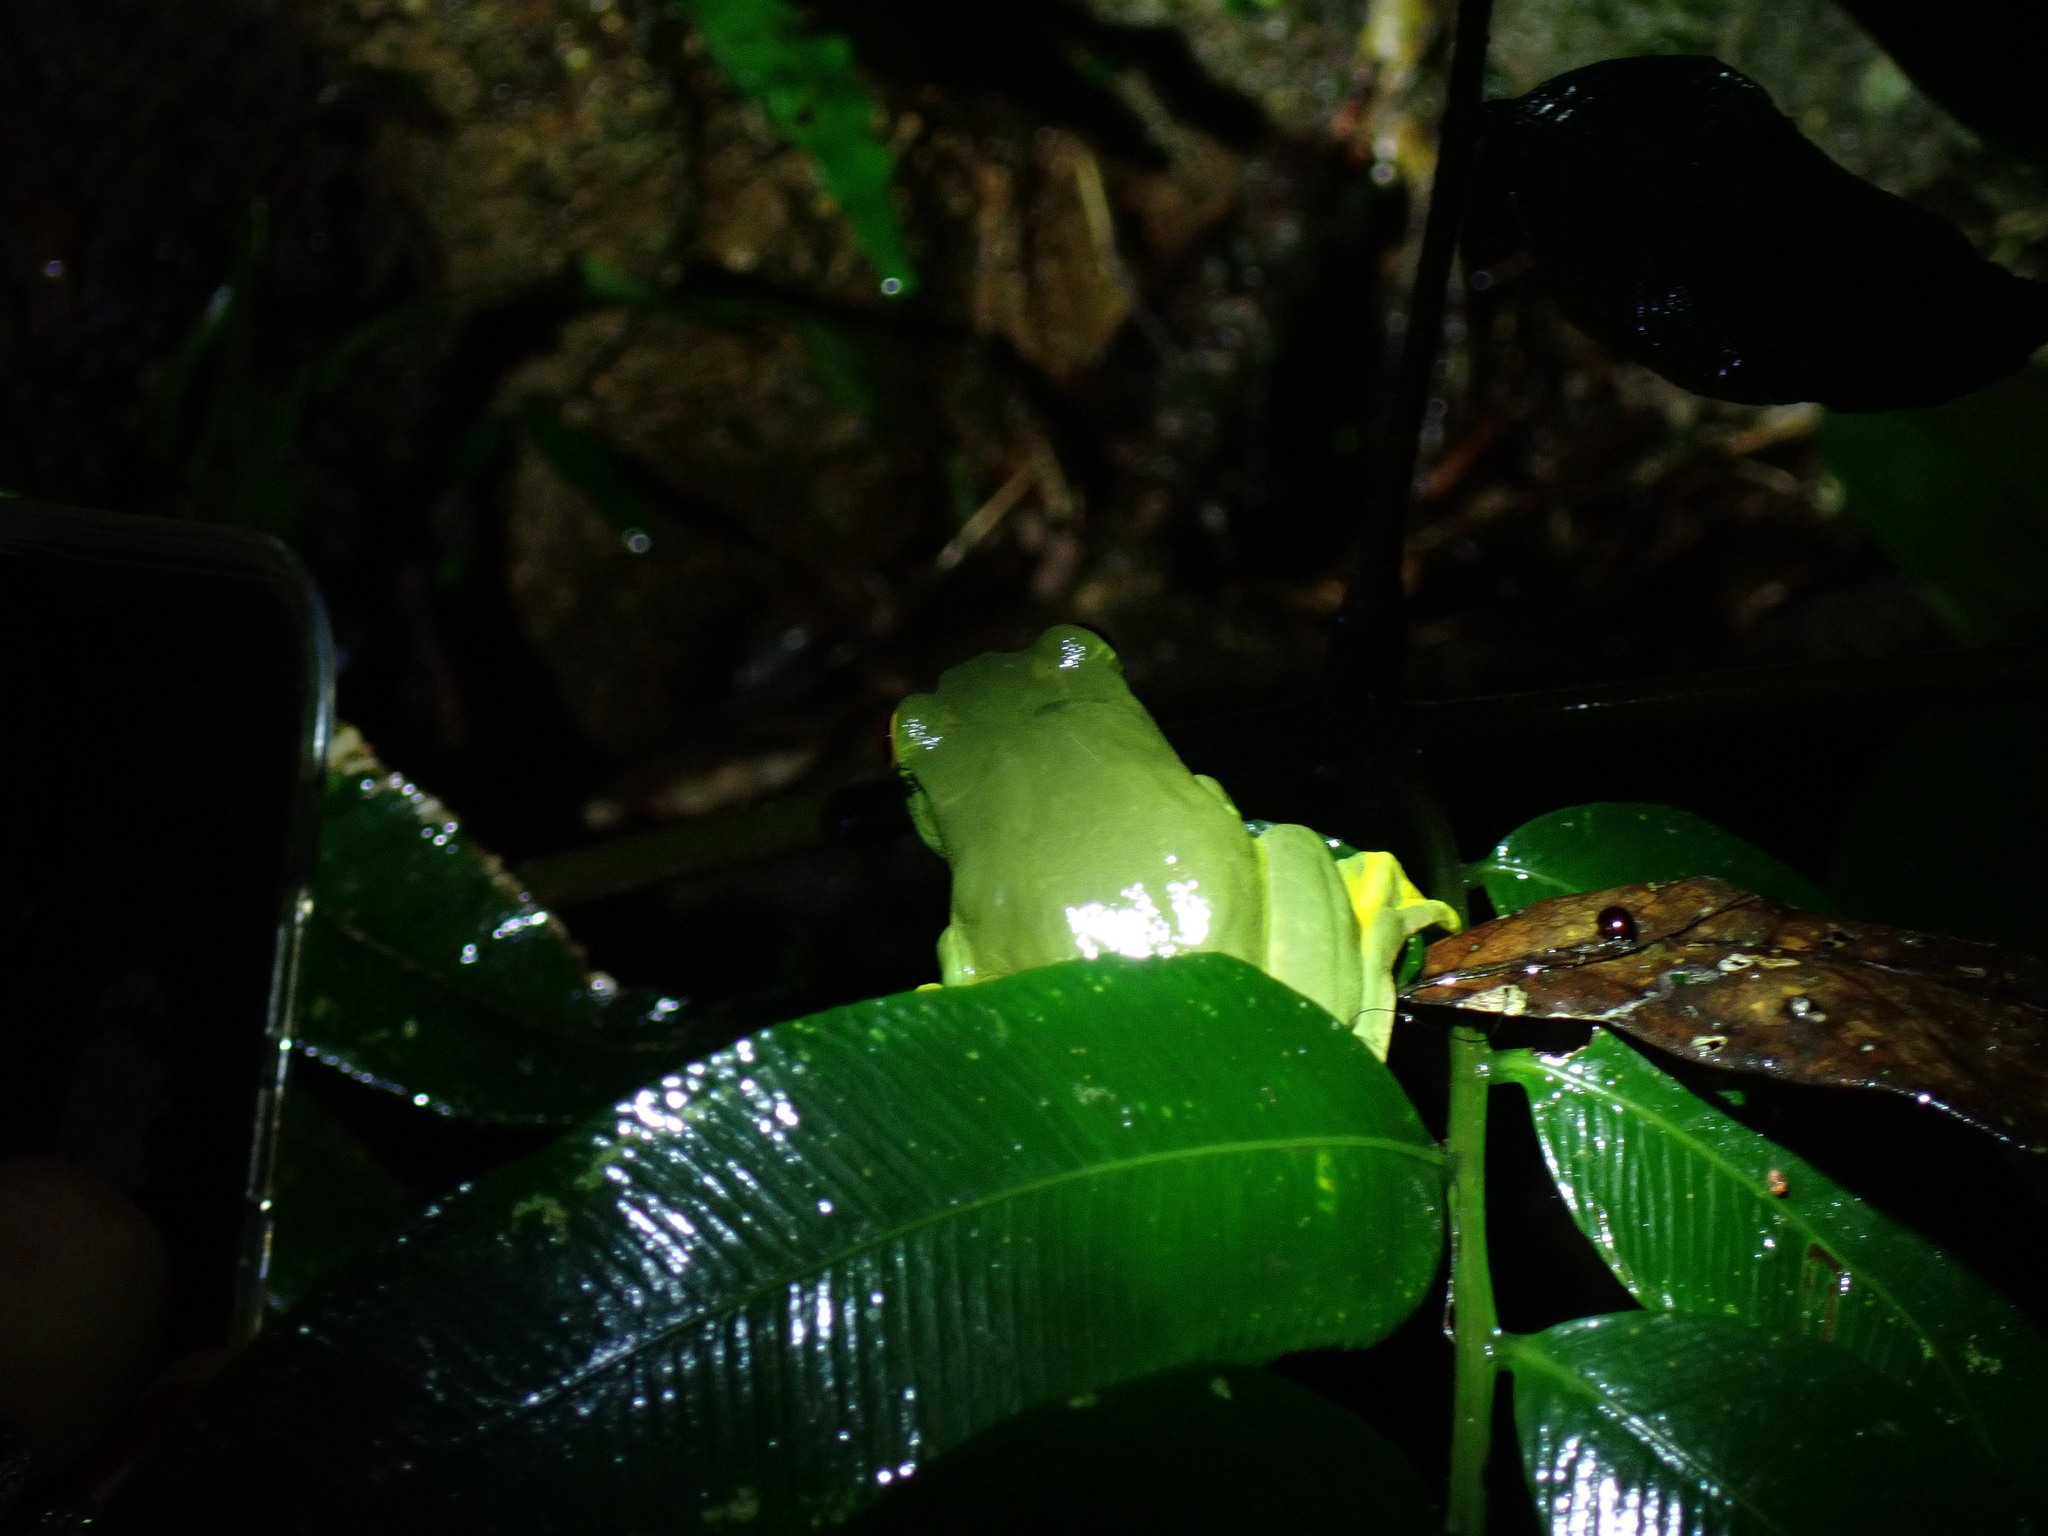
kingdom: Animalia
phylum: Chordata
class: Amphibia
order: Anura
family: Pelodryadidae
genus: Ranoidea
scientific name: Ranoidea xanthomera
